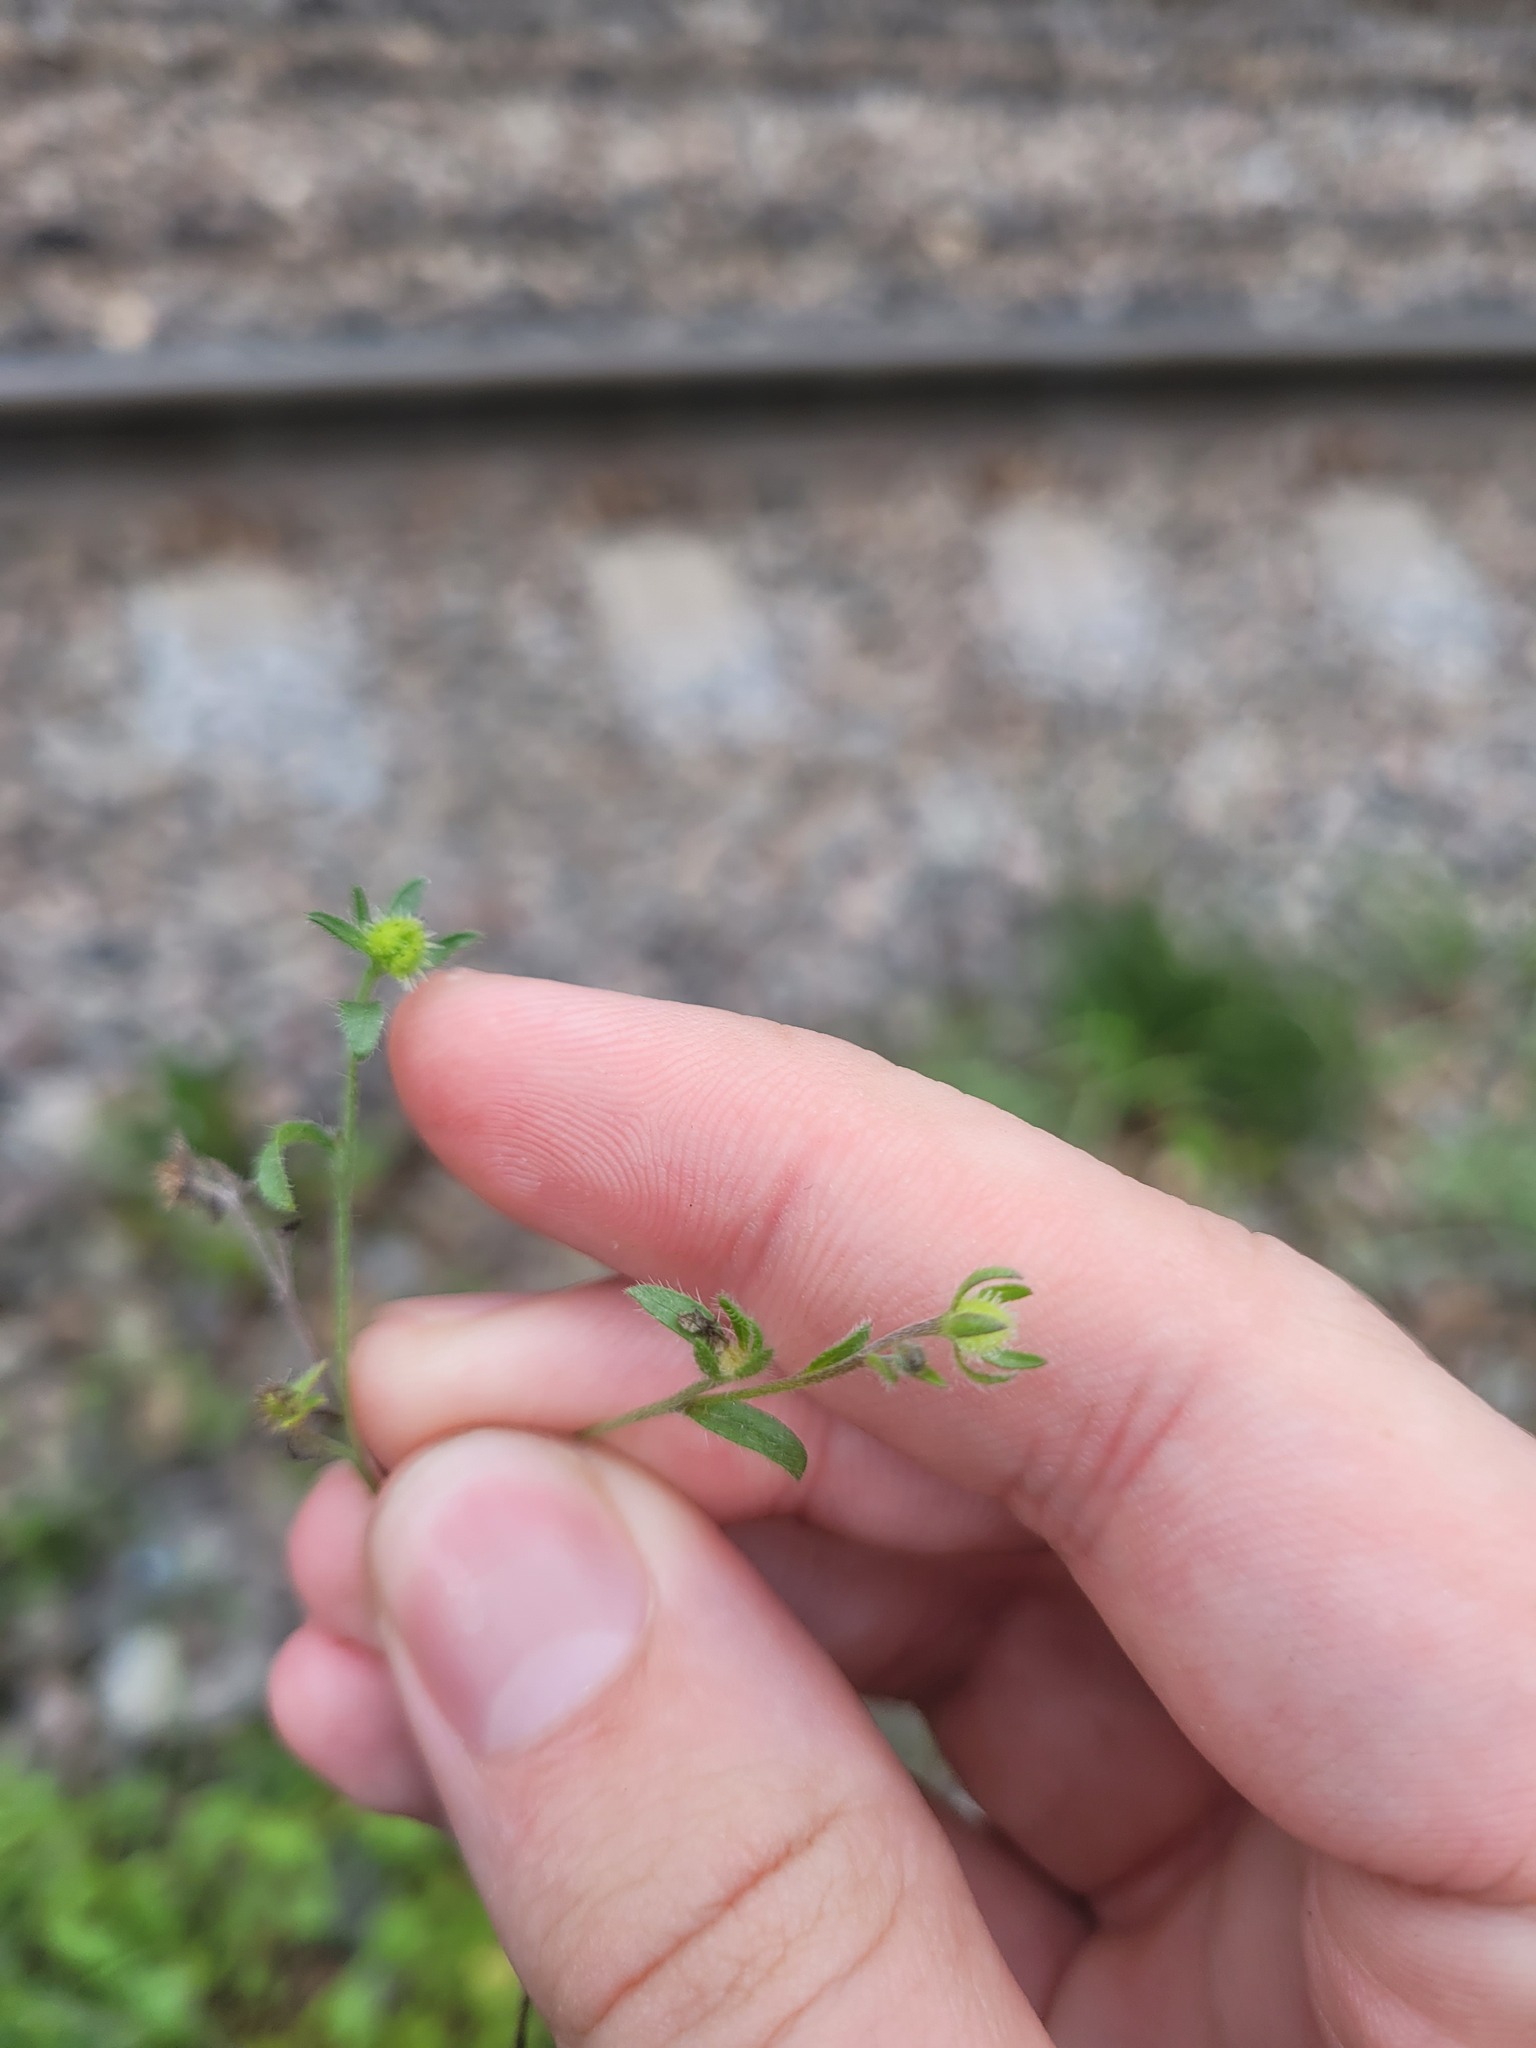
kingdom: Plantae
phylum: Tracheophyta
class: Magnoliopsida
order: Boraginales
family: Boraginaceae
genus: Lappula
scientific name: Lappula squarrosa
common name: European stickseed
